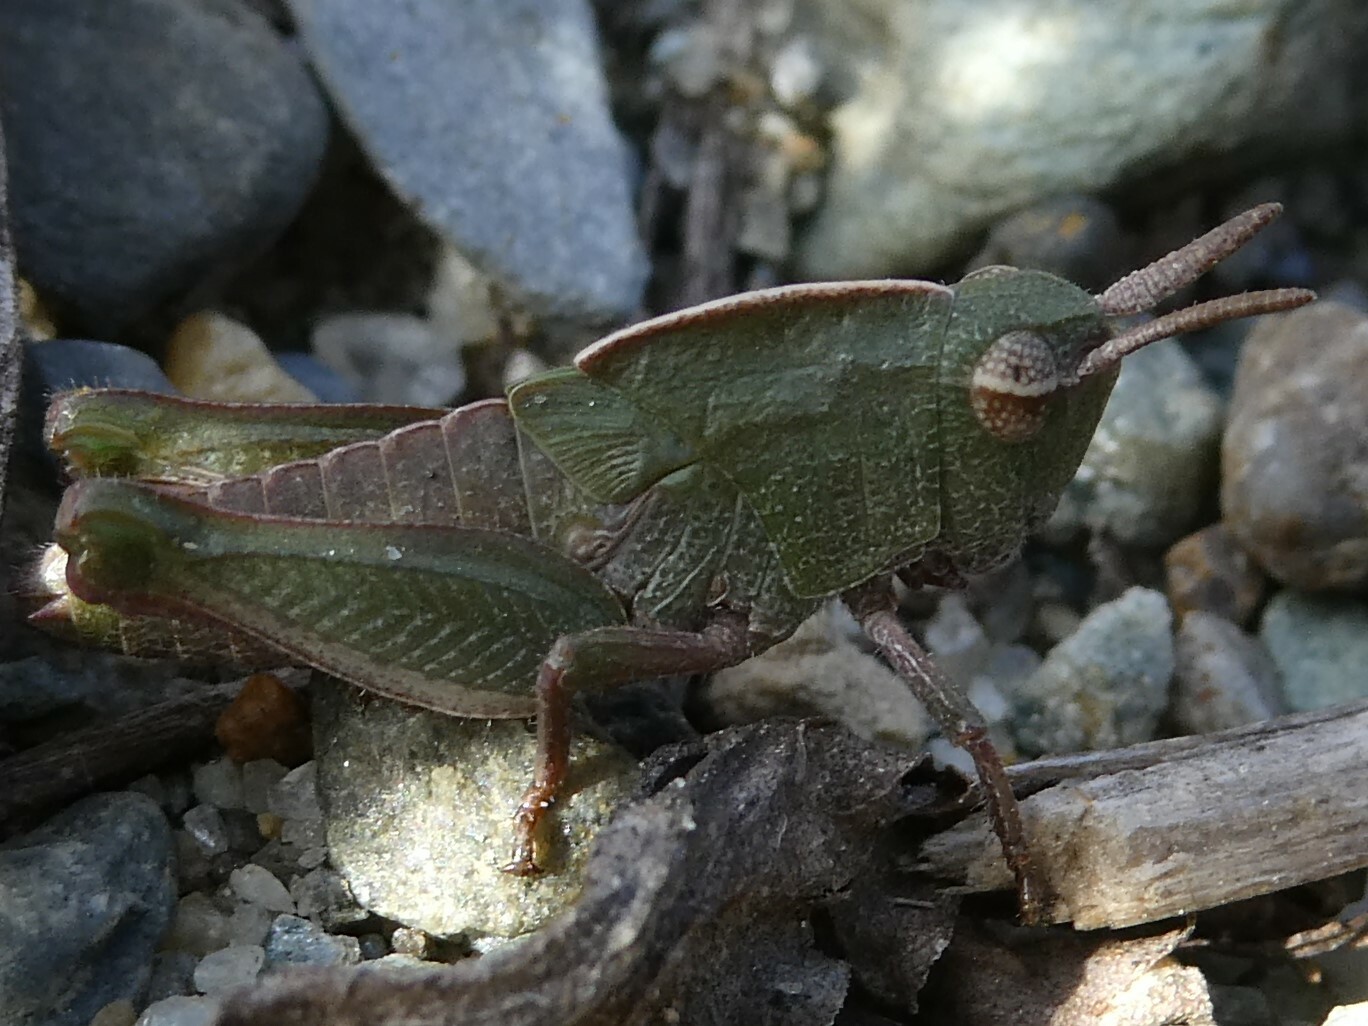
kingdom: Animalia
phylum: Arthropoda
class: Insecta
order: Orthoptera
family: Acrididae
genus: Chortophaga
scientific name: Chortophaga viridifasciata
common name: Green-striped grasshopper
